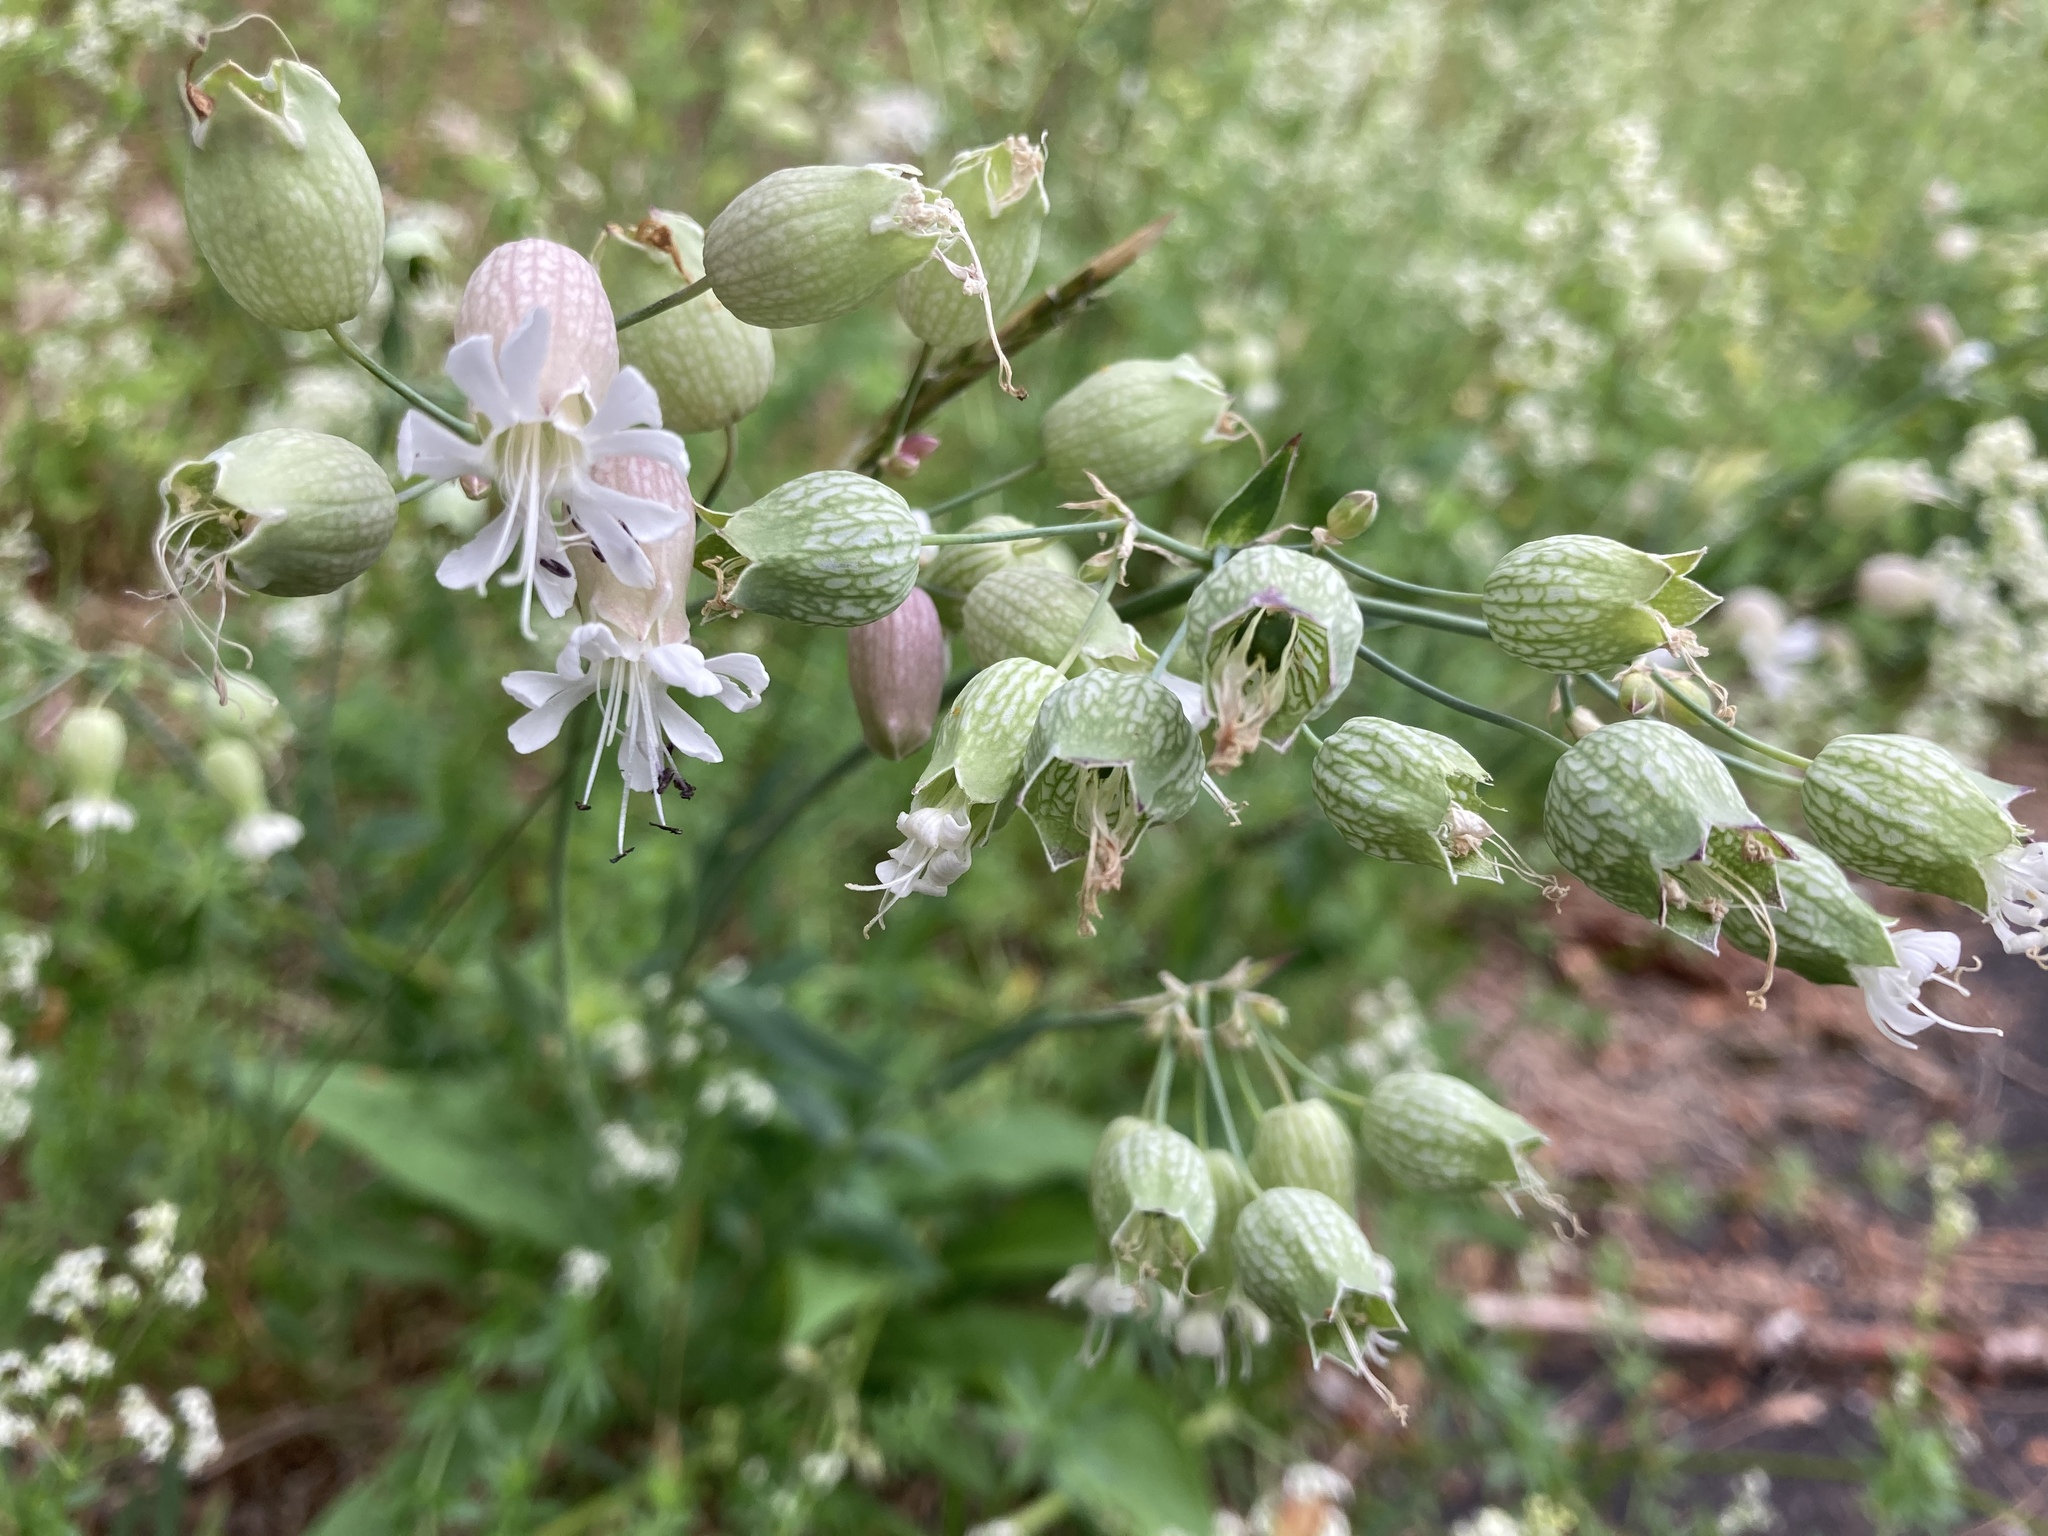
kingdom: Plantae
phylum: Tracheophyta
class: Magnoliopsida
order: Caryophyllales
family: Caryophyllaceae
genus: Silene
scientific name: Silene vulgaris
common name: Bladder campion
